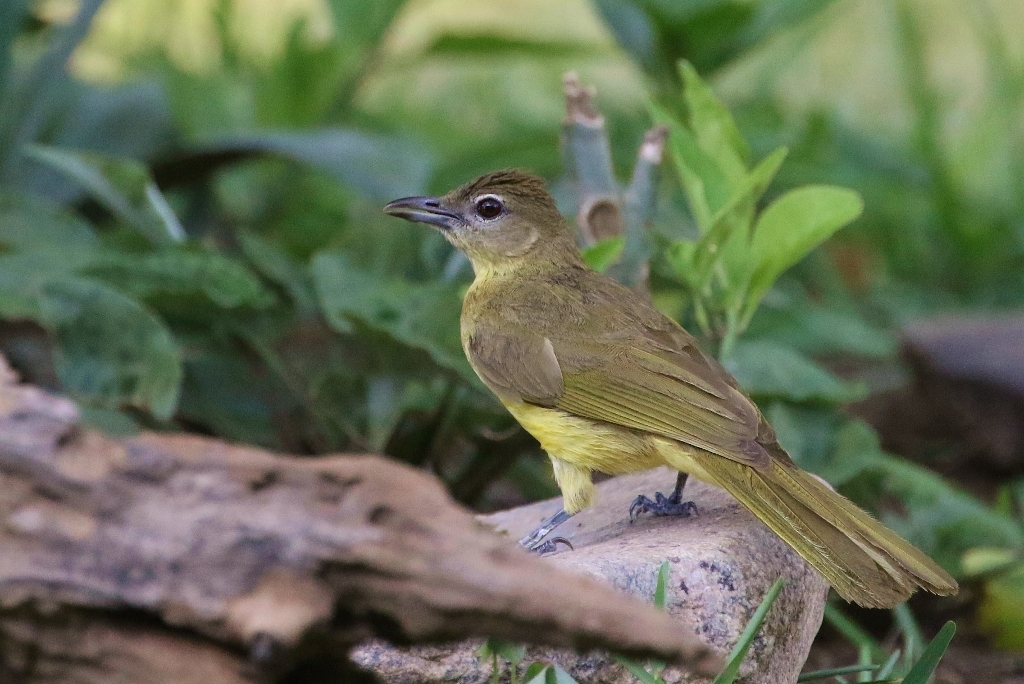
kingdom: Animalia
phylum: Chordata
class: Aves
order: Passeriformes
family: Pycnonotidae
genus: Chlorocichla
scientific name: Chlorocichla flaviventris
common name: Yellow-bellied greenbul
